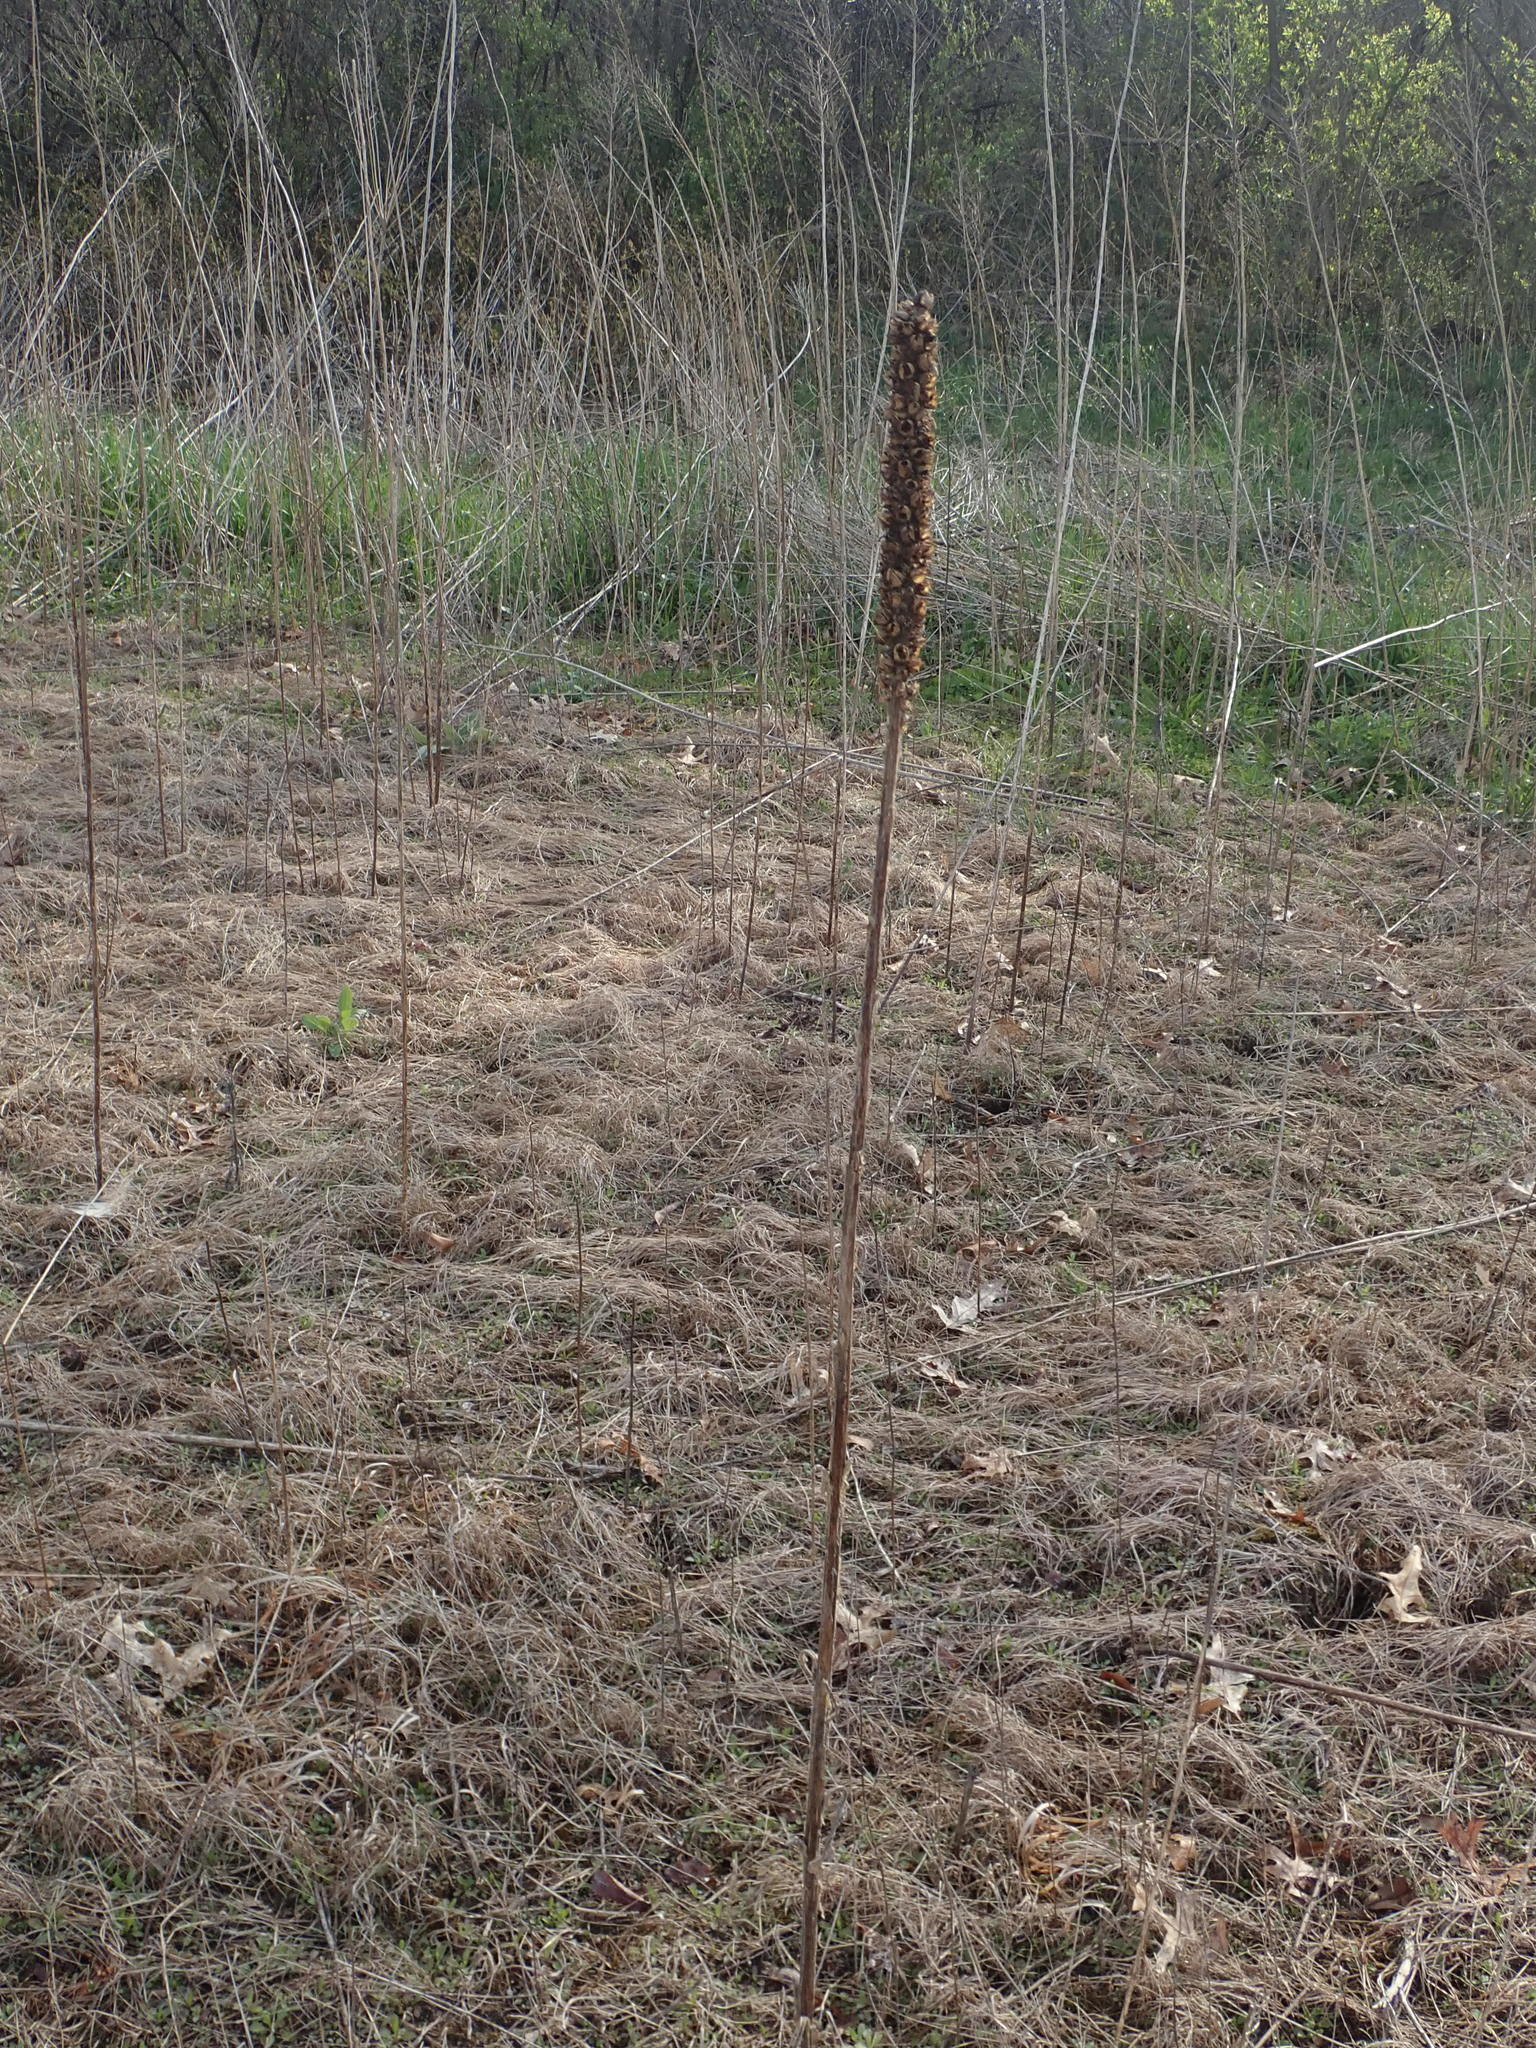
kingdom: Plantae
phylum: Tracheophyta
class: Magnoliopsida
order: Lamiales
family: Scrophulariaceae
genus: Verbascum
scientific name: Verbascum thapsus
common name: Common mullein
